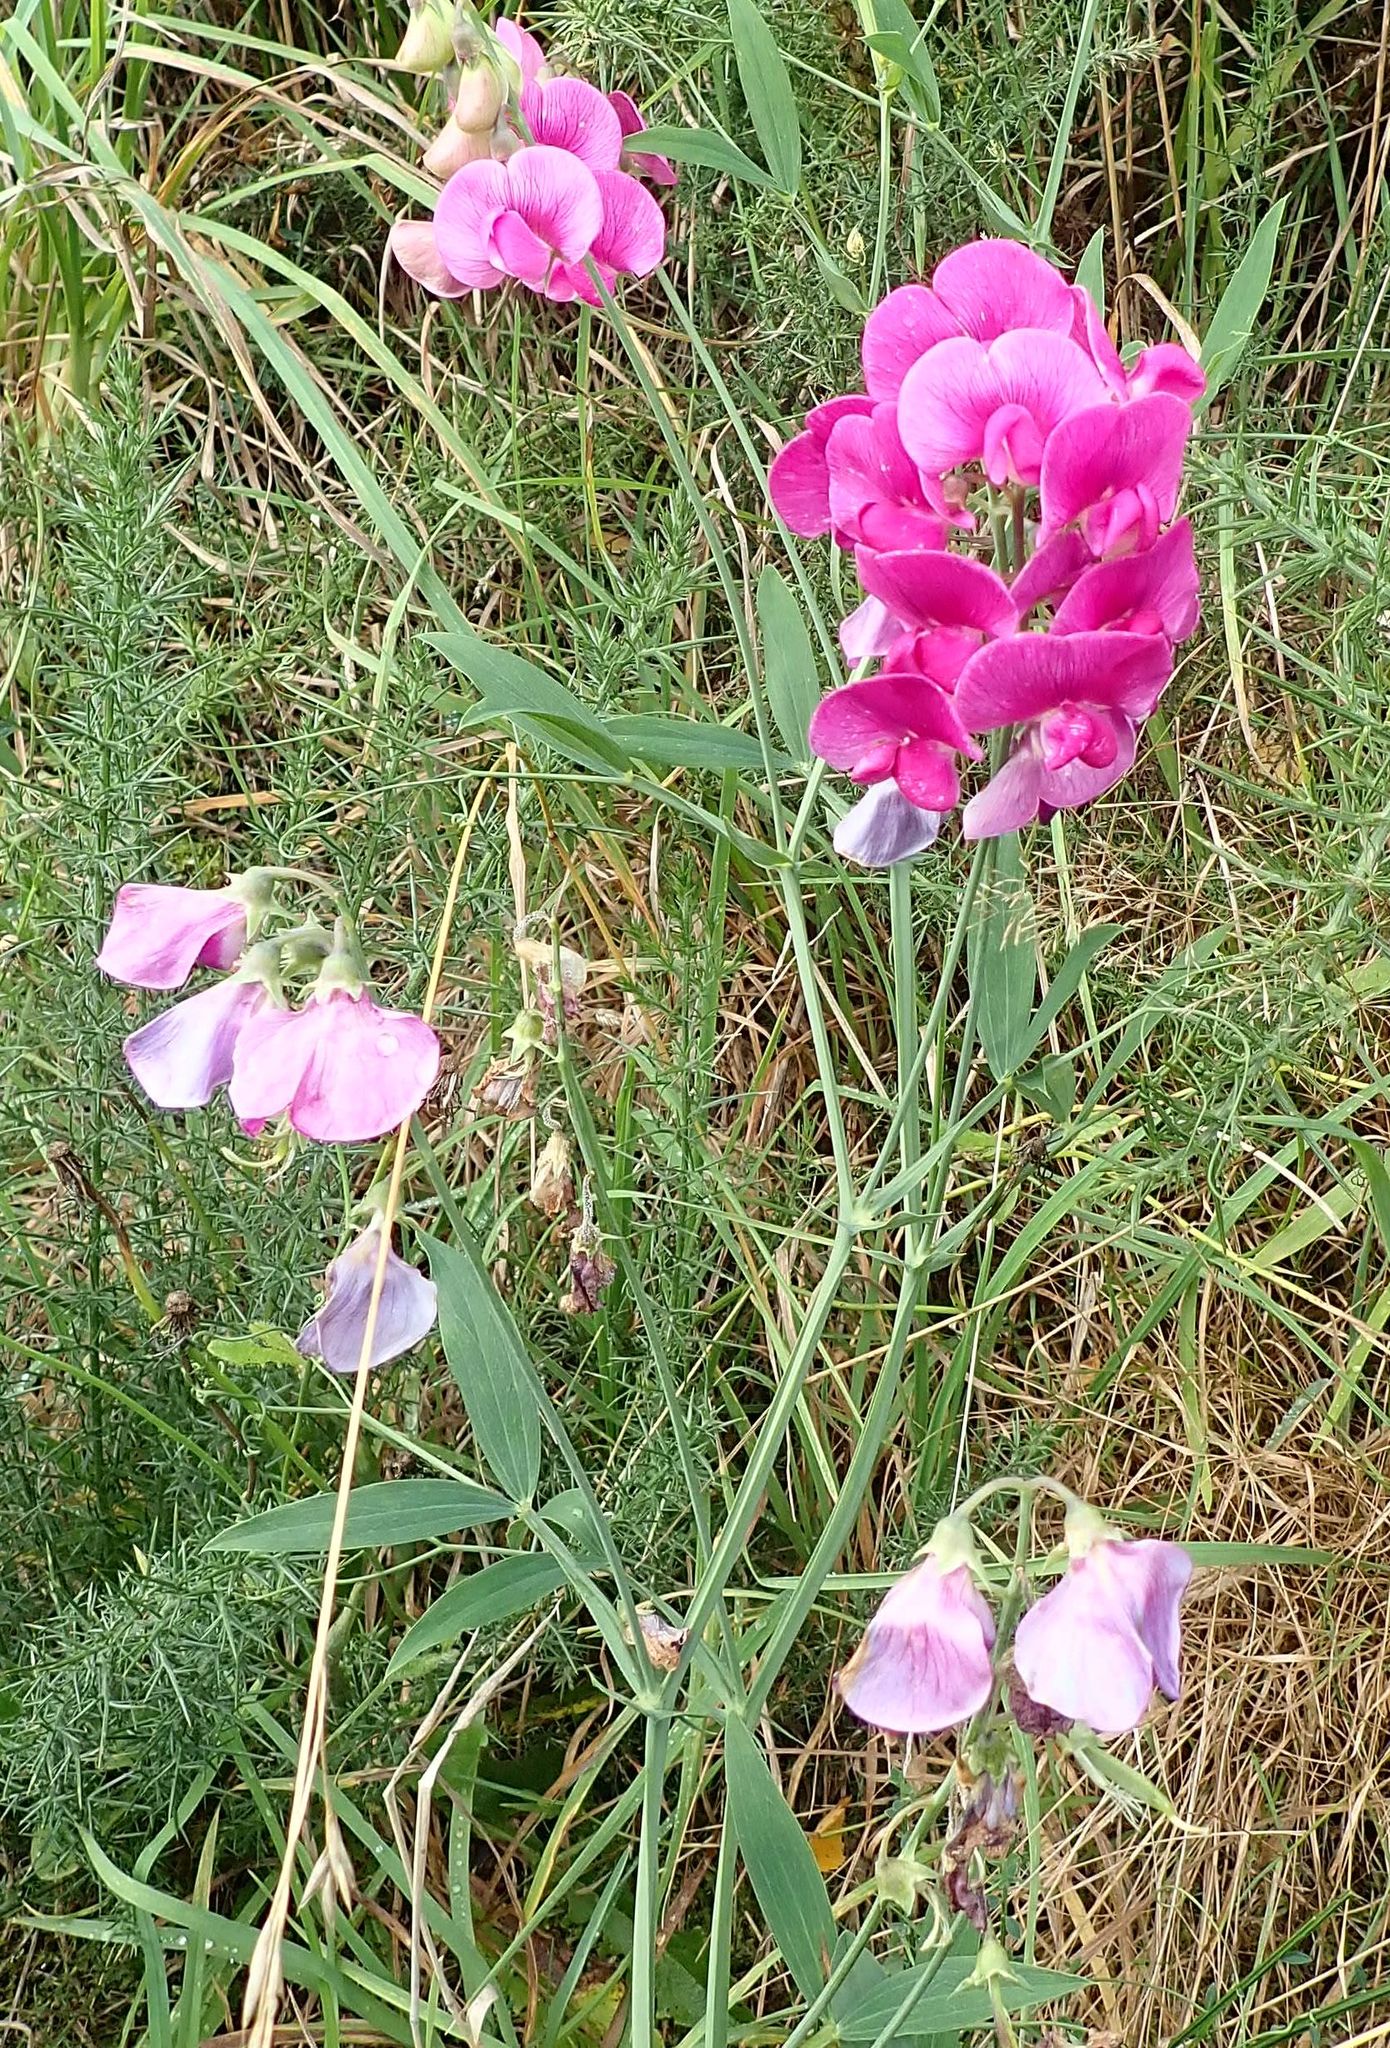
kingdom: Plantae
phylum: Tracheophyta
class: Magnoliopsida
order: Fabales
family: Fabaceae
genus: Lathyrus
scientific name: Lathyrus latifolius
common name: Perennial pea
